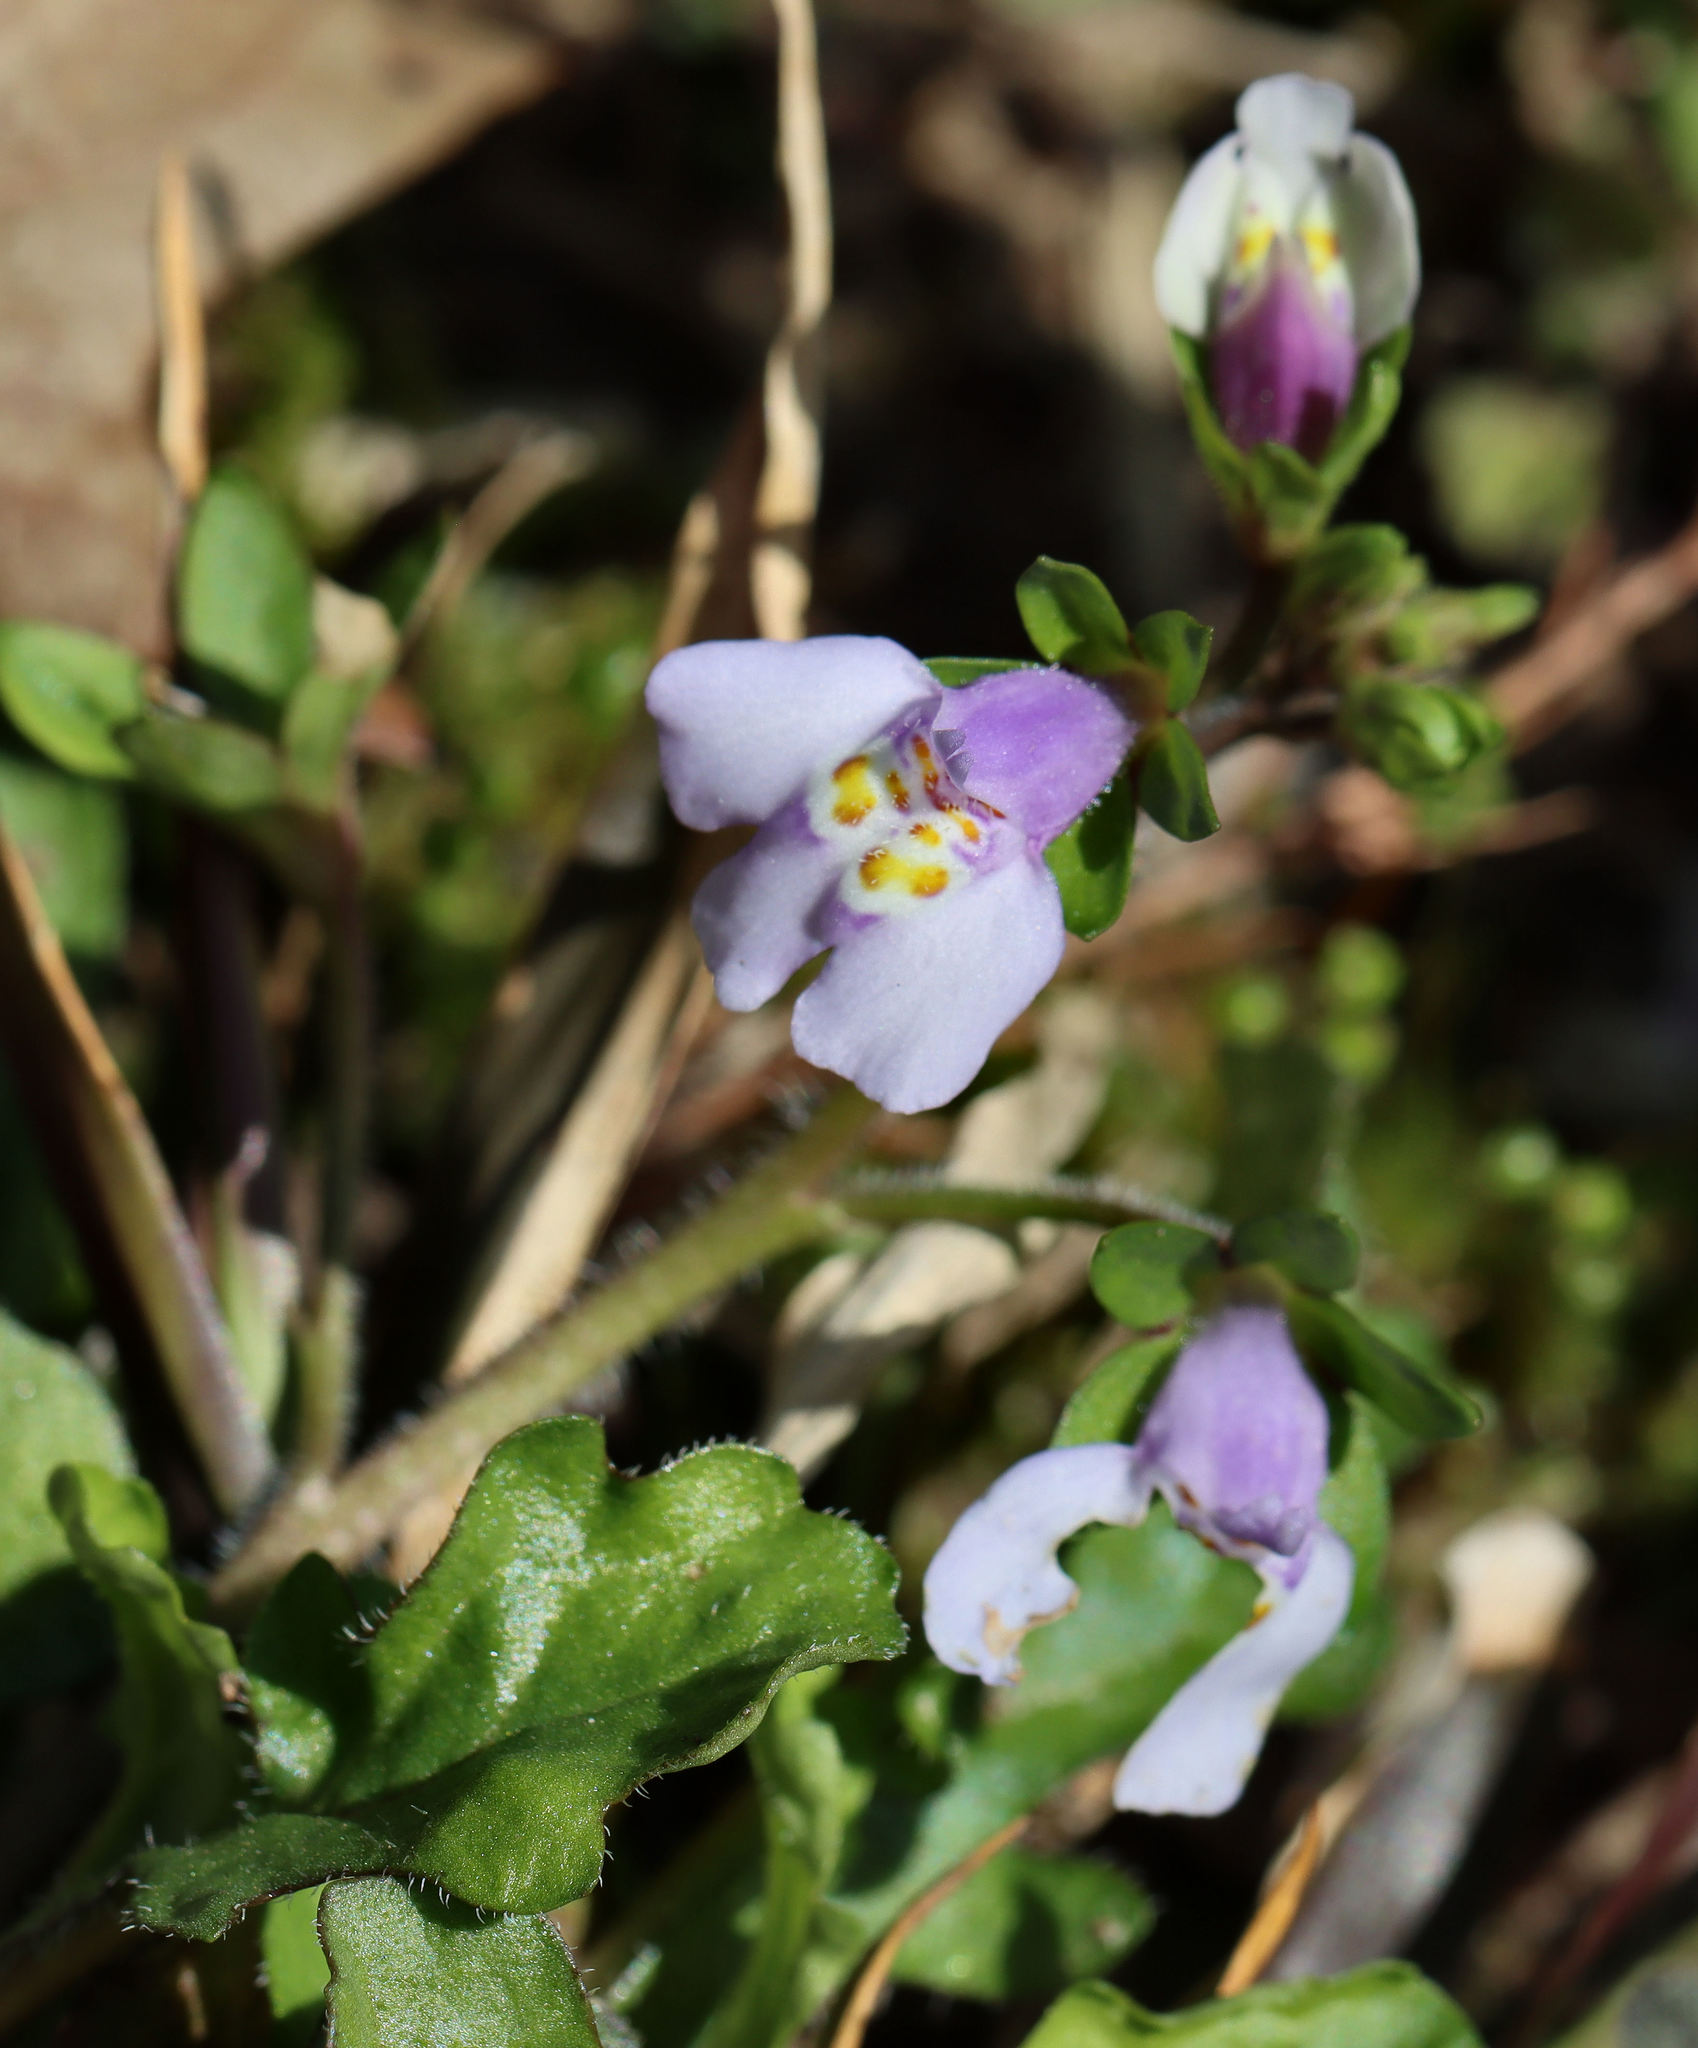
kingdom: Plantae
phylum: Tracheophyta
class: Magnoliopsida
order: Lamiales
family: Mazaceae
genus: Mazus
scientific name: Mazus pumilus
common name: Japanese mazus
